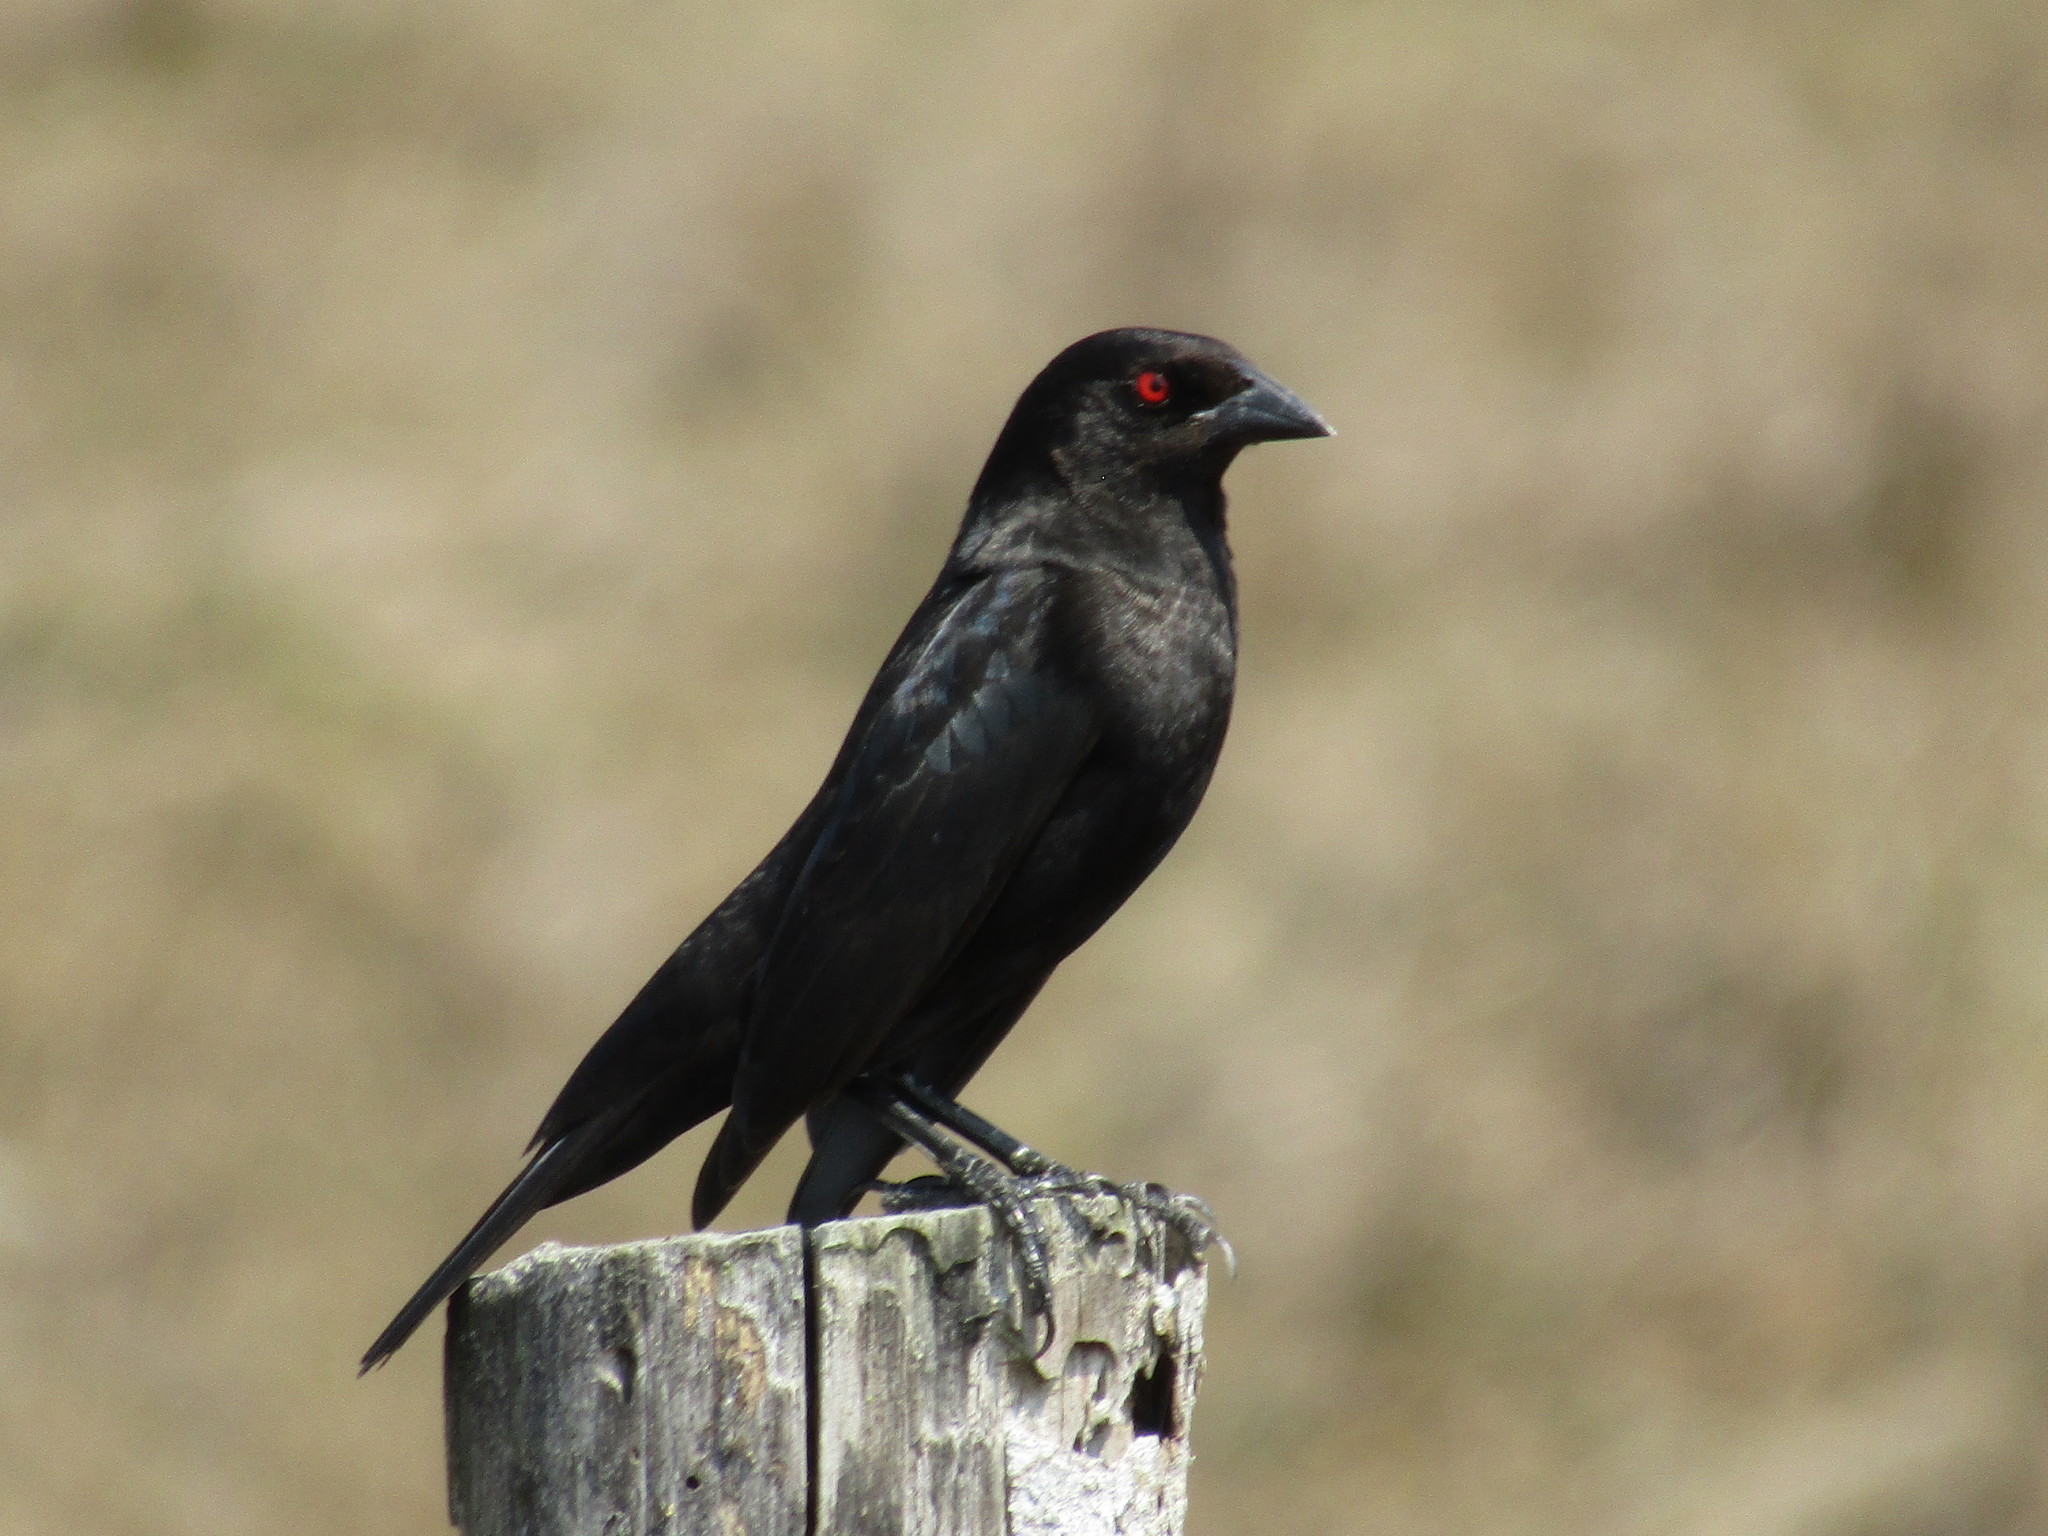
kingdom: Animalia
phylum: Chordata
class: Aves
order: Passeriformes
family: Icteridae
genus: Molothrus
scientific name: Molothrus aeneus
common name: Bronzed cowbird
